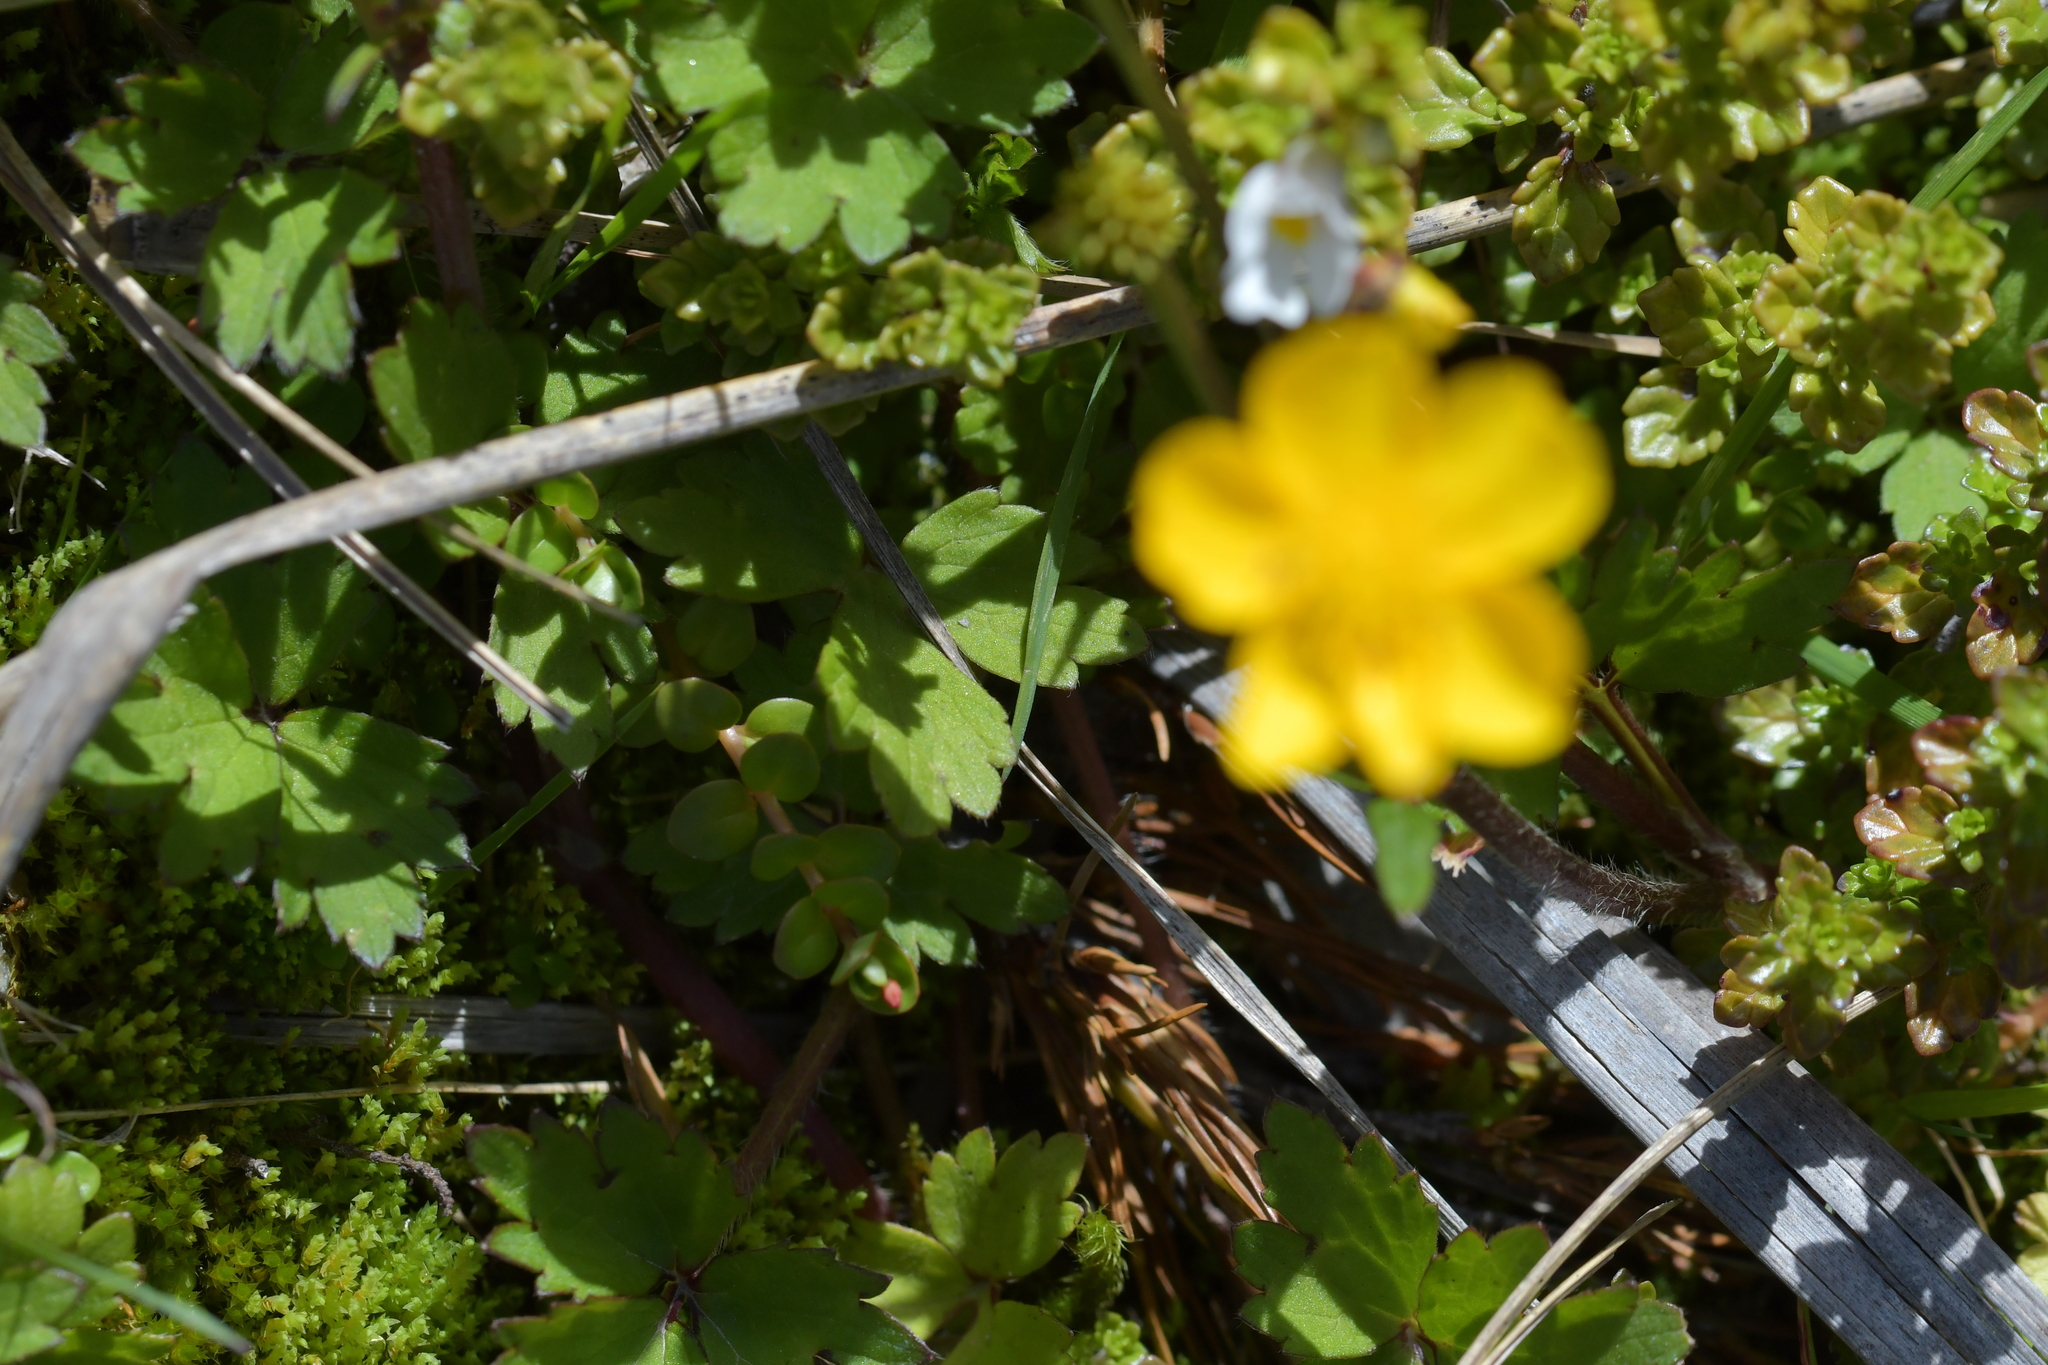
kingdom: Plantae
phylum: Tracheophyta
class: Magnoliopsida
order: Ranunculales
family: Ranunculaceae
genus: Ranunculus
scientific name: Ranunculus repens
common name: Creeping buttercup
